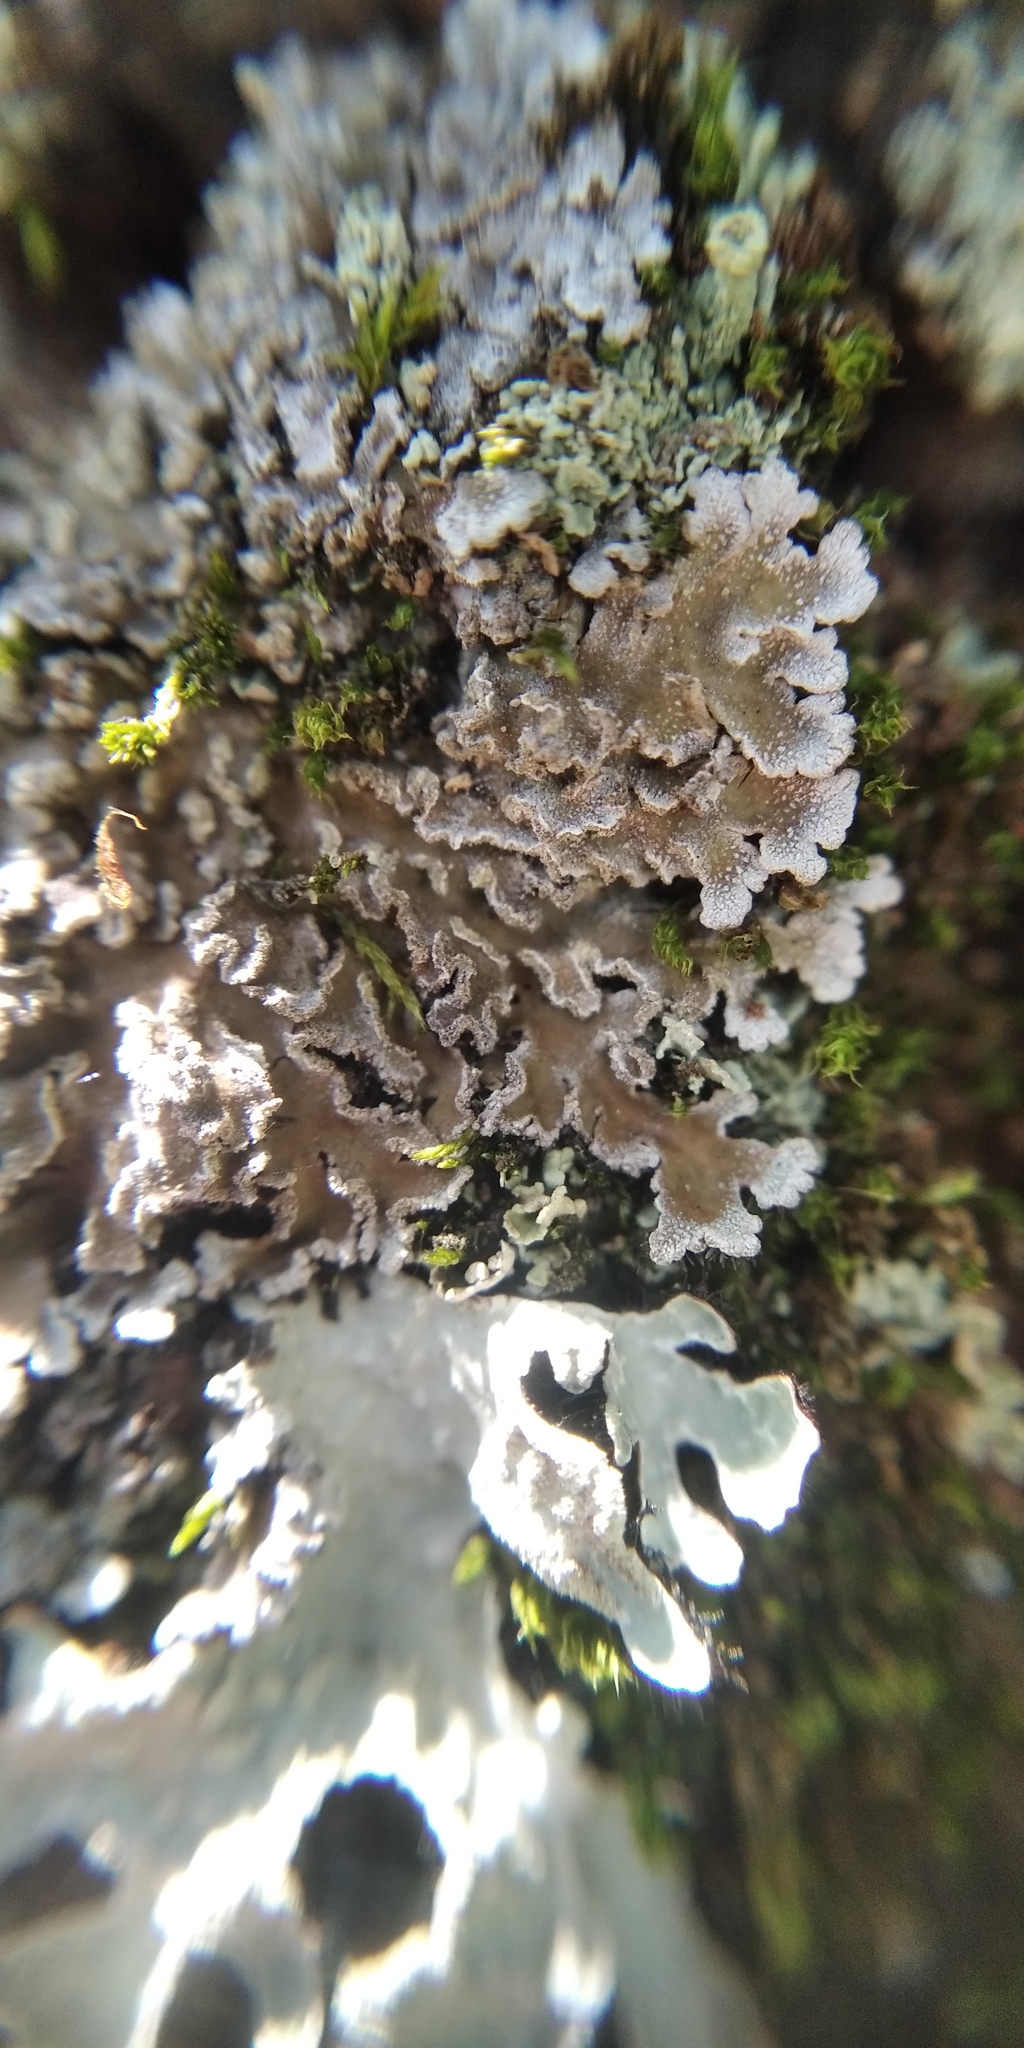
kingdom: Fungi
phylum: Ascomycota
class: Lecanoromycetes
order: Caliciales
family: Physciaceae
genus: Physconia
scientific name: Physconia enteroxantha
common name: Yellow-edged frost lichen
